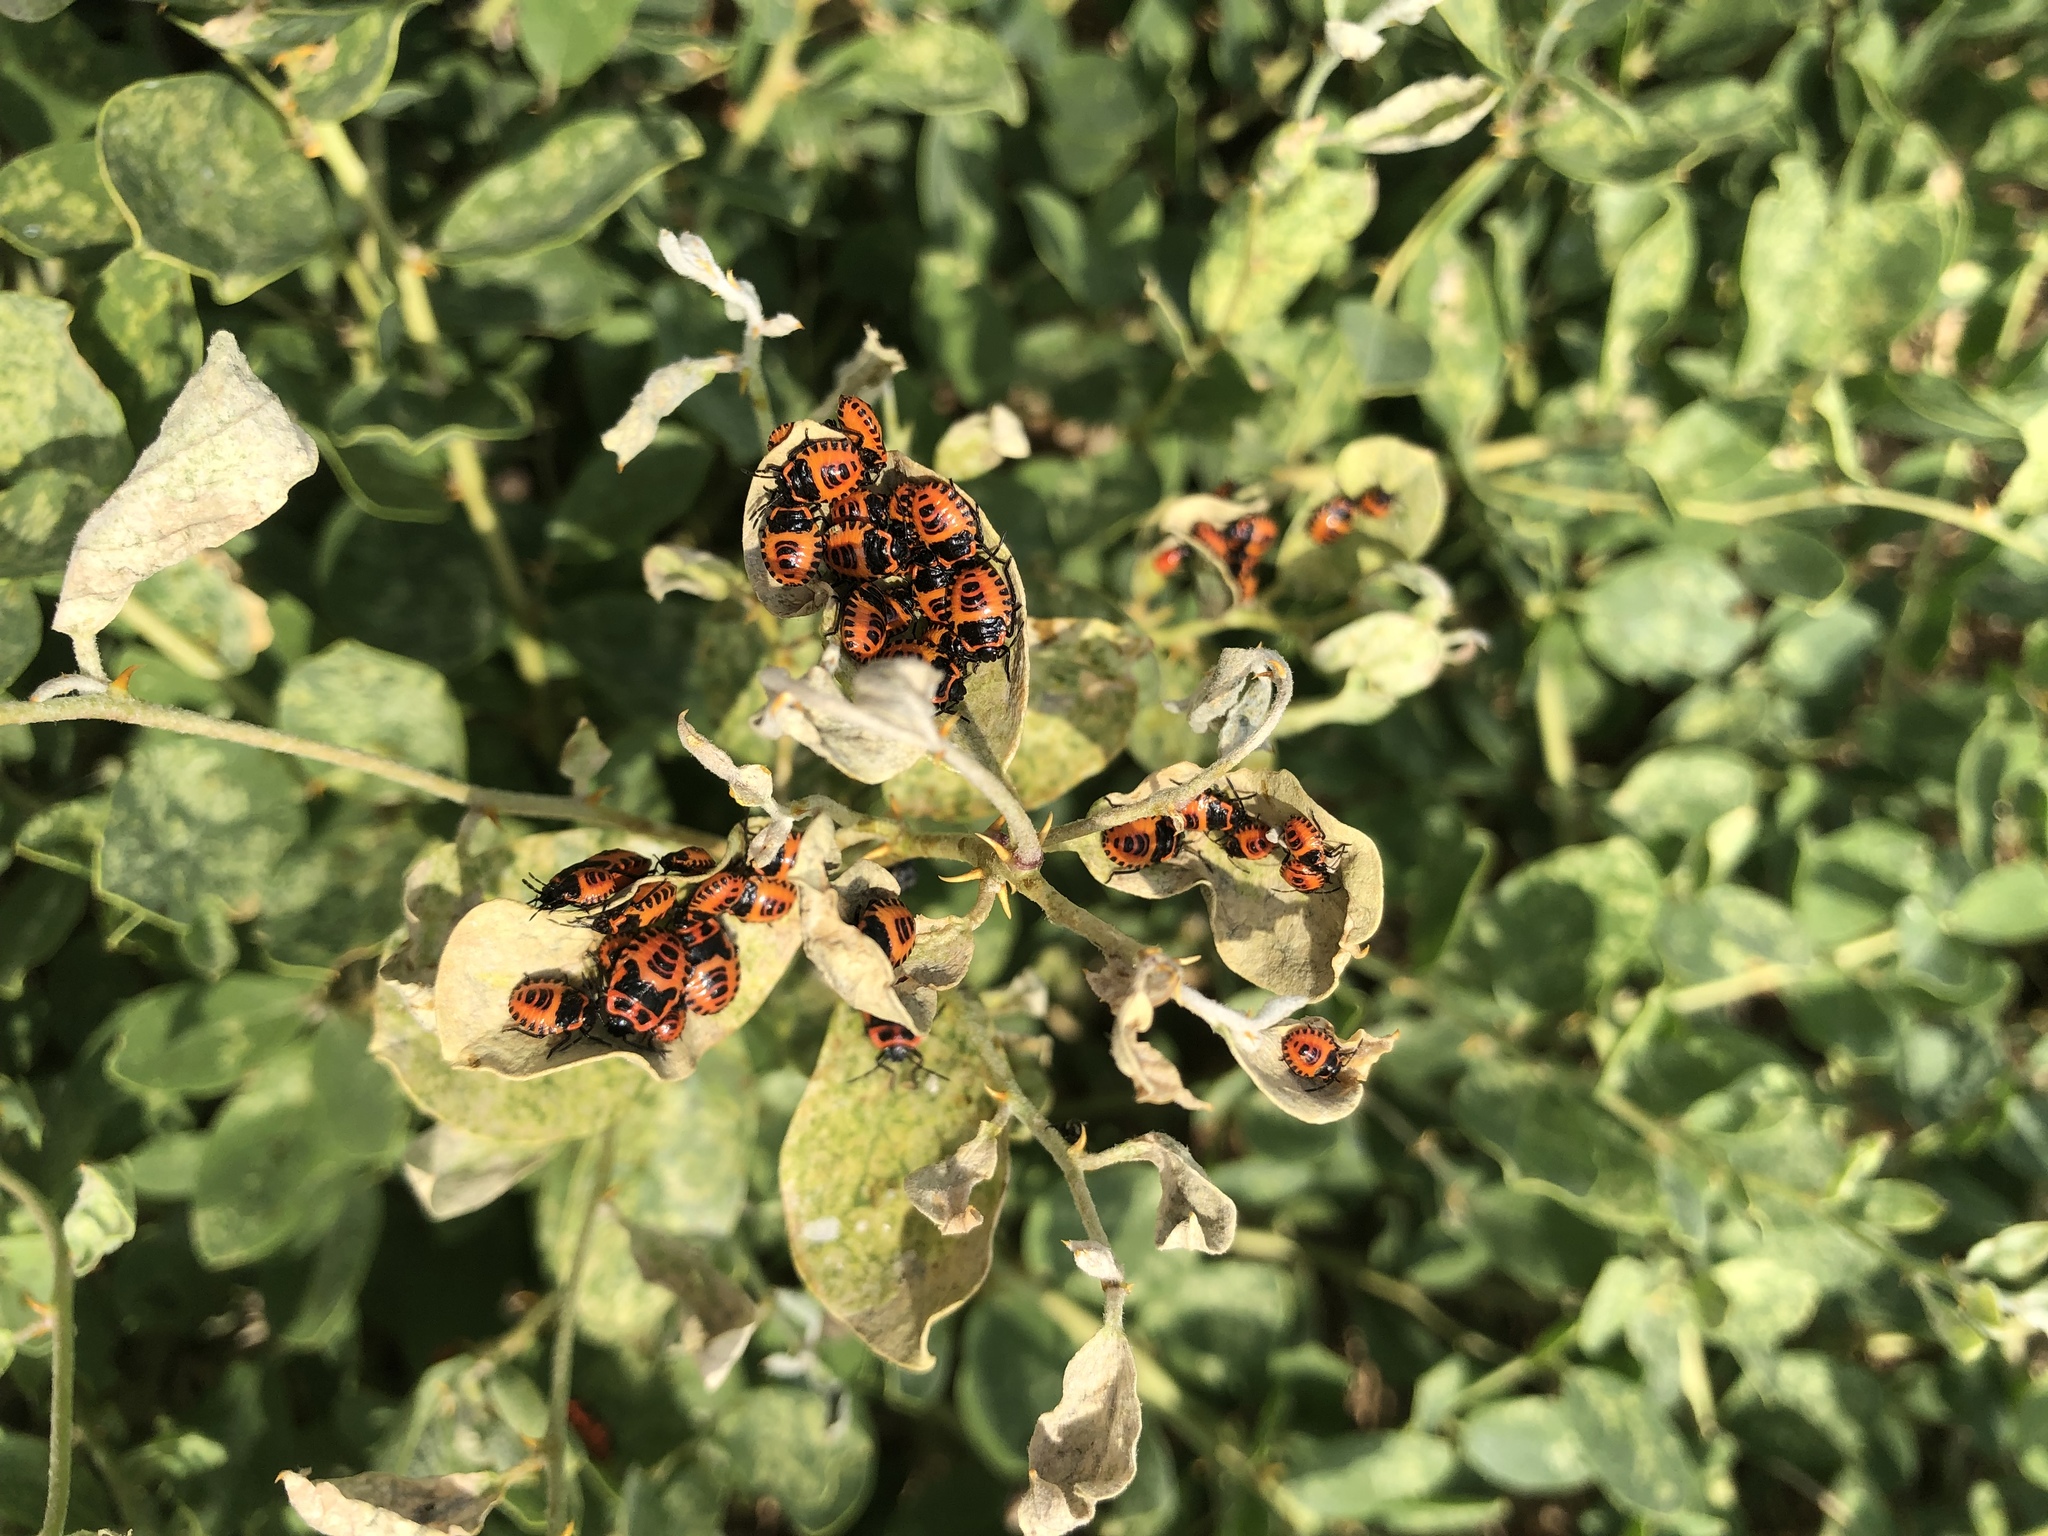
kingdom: Animalia
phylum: Arthropoda
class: Insecta
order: Hemiptera
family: Pentatomidae
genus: Eurydema
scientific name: Eurydema eckerleini
